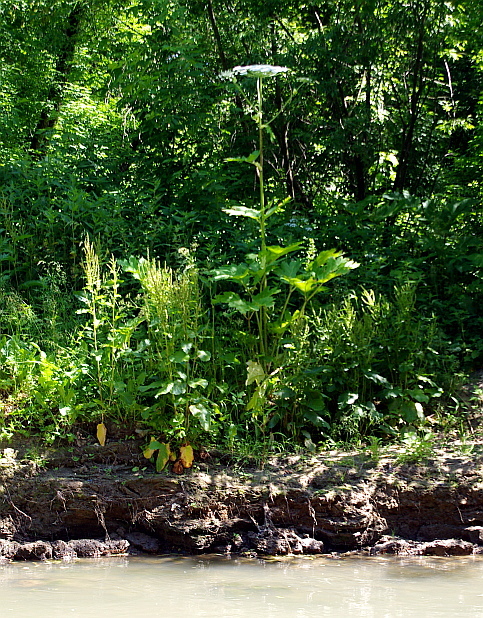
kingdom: Plantae
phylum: Tracheophyta
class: Magnoliopsida
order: Apiales
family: Apiaceae
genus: Heracleum
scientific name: Heracleum sosnowskyi
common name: Sosnowsky's hogweed
